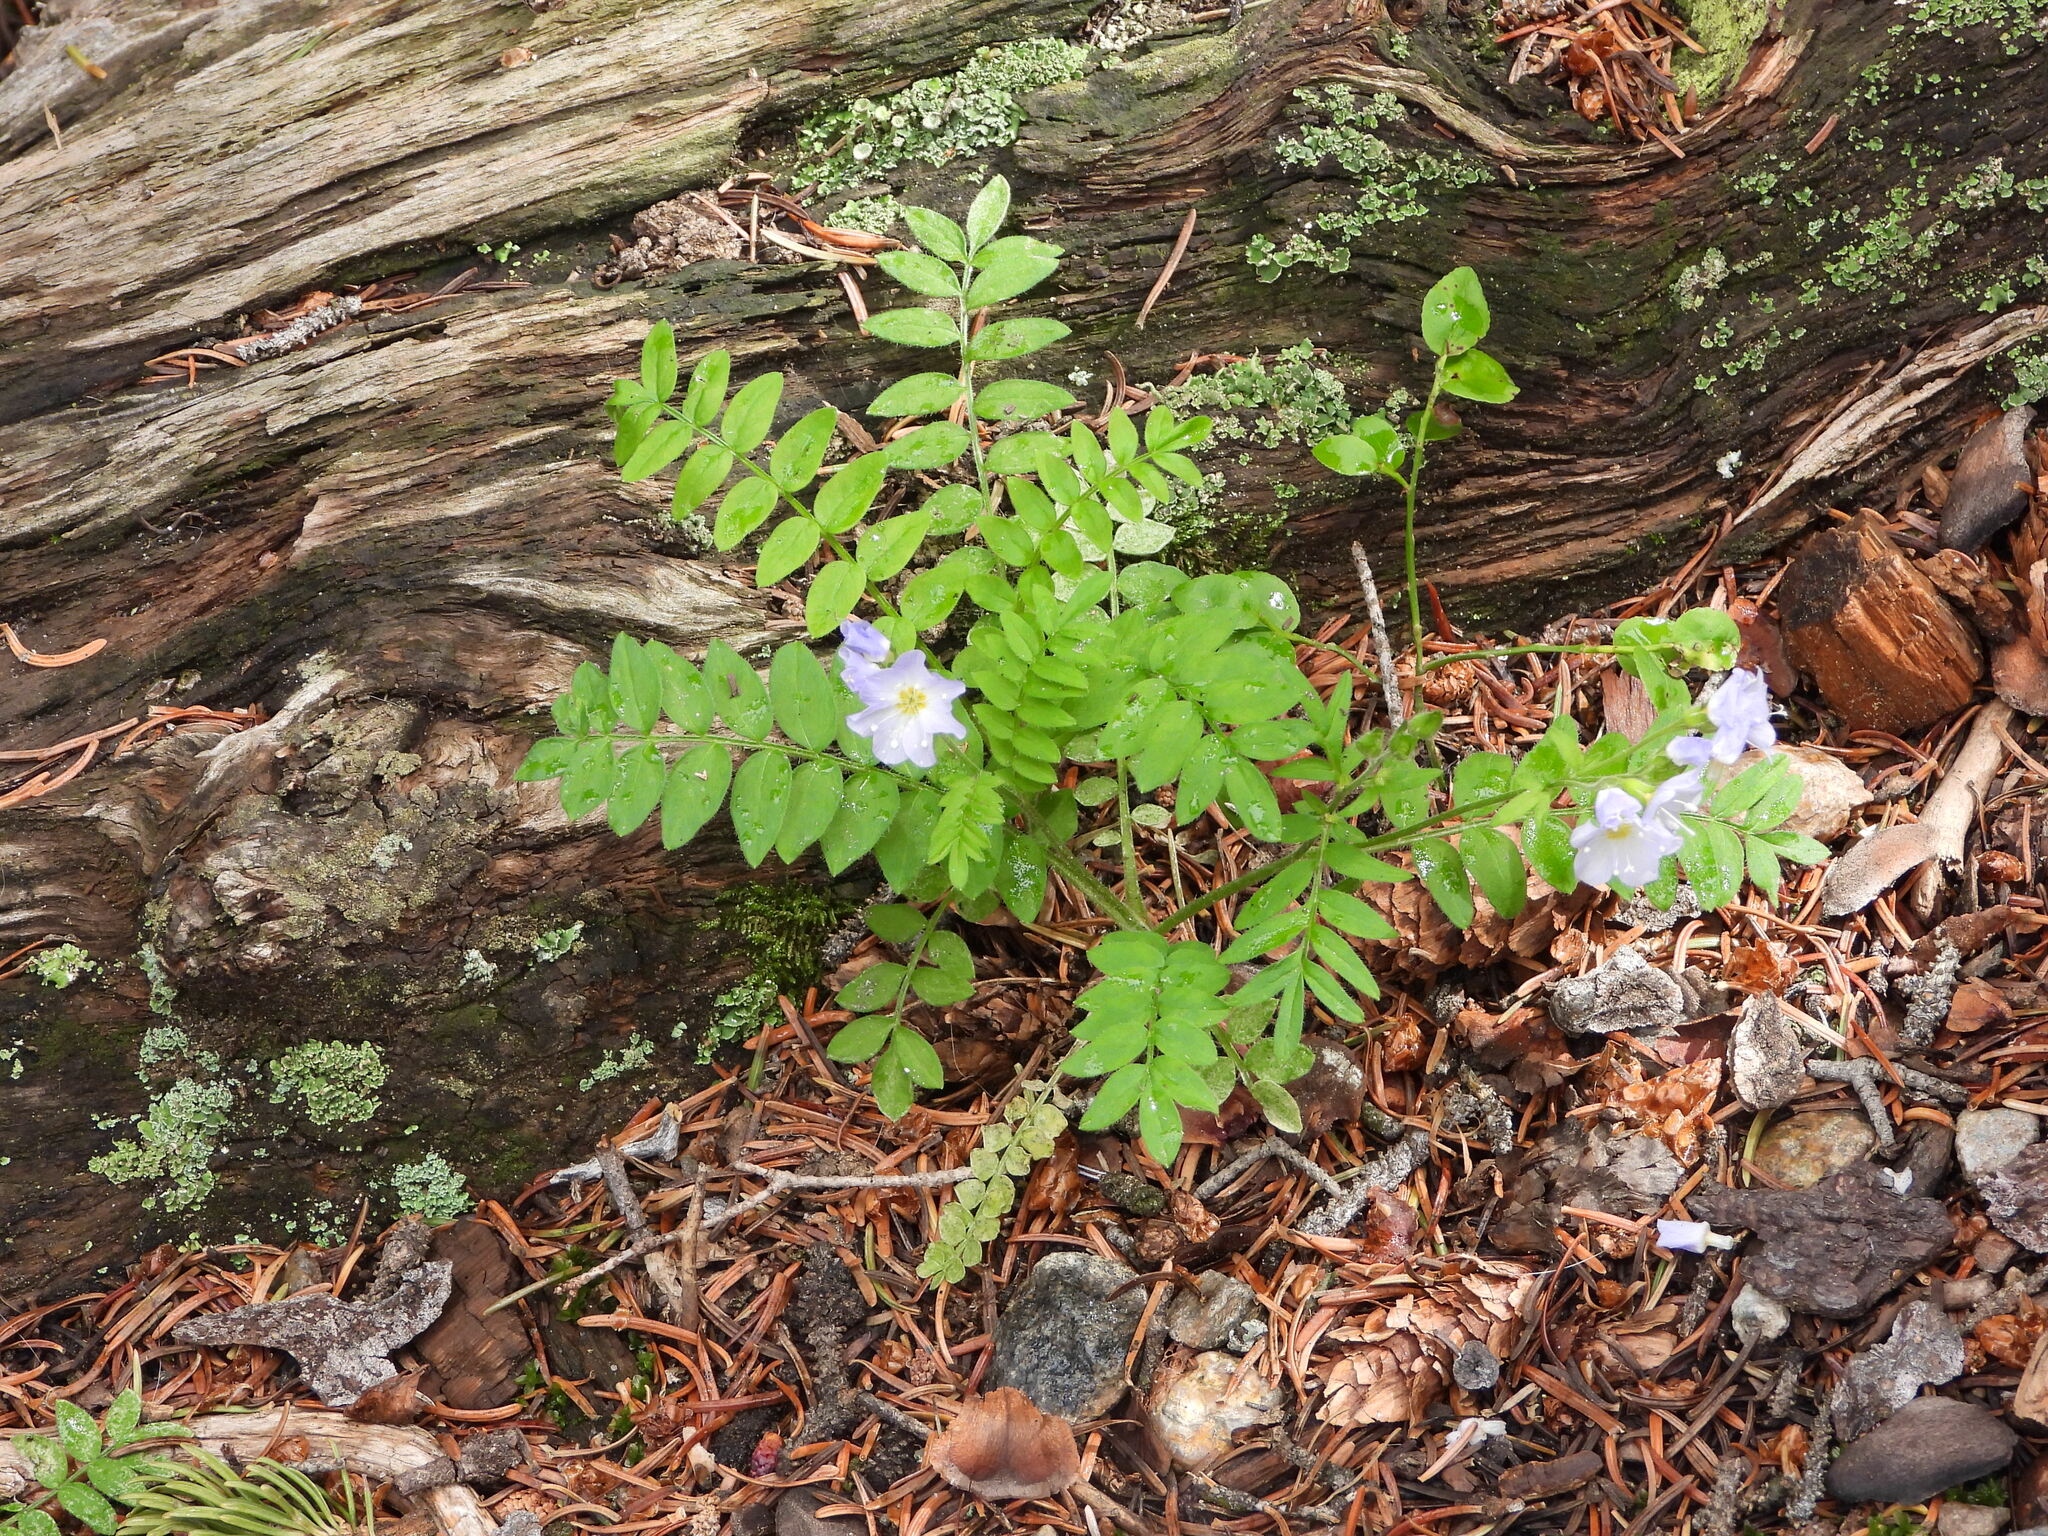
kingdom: Plantae
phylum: Tracheophyta
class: Magnoliopsida
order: Ericales
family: Polemoniaceae
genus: Polemonium
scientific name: Polemonium pulcherrimum
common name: Short jacob's-ladder
